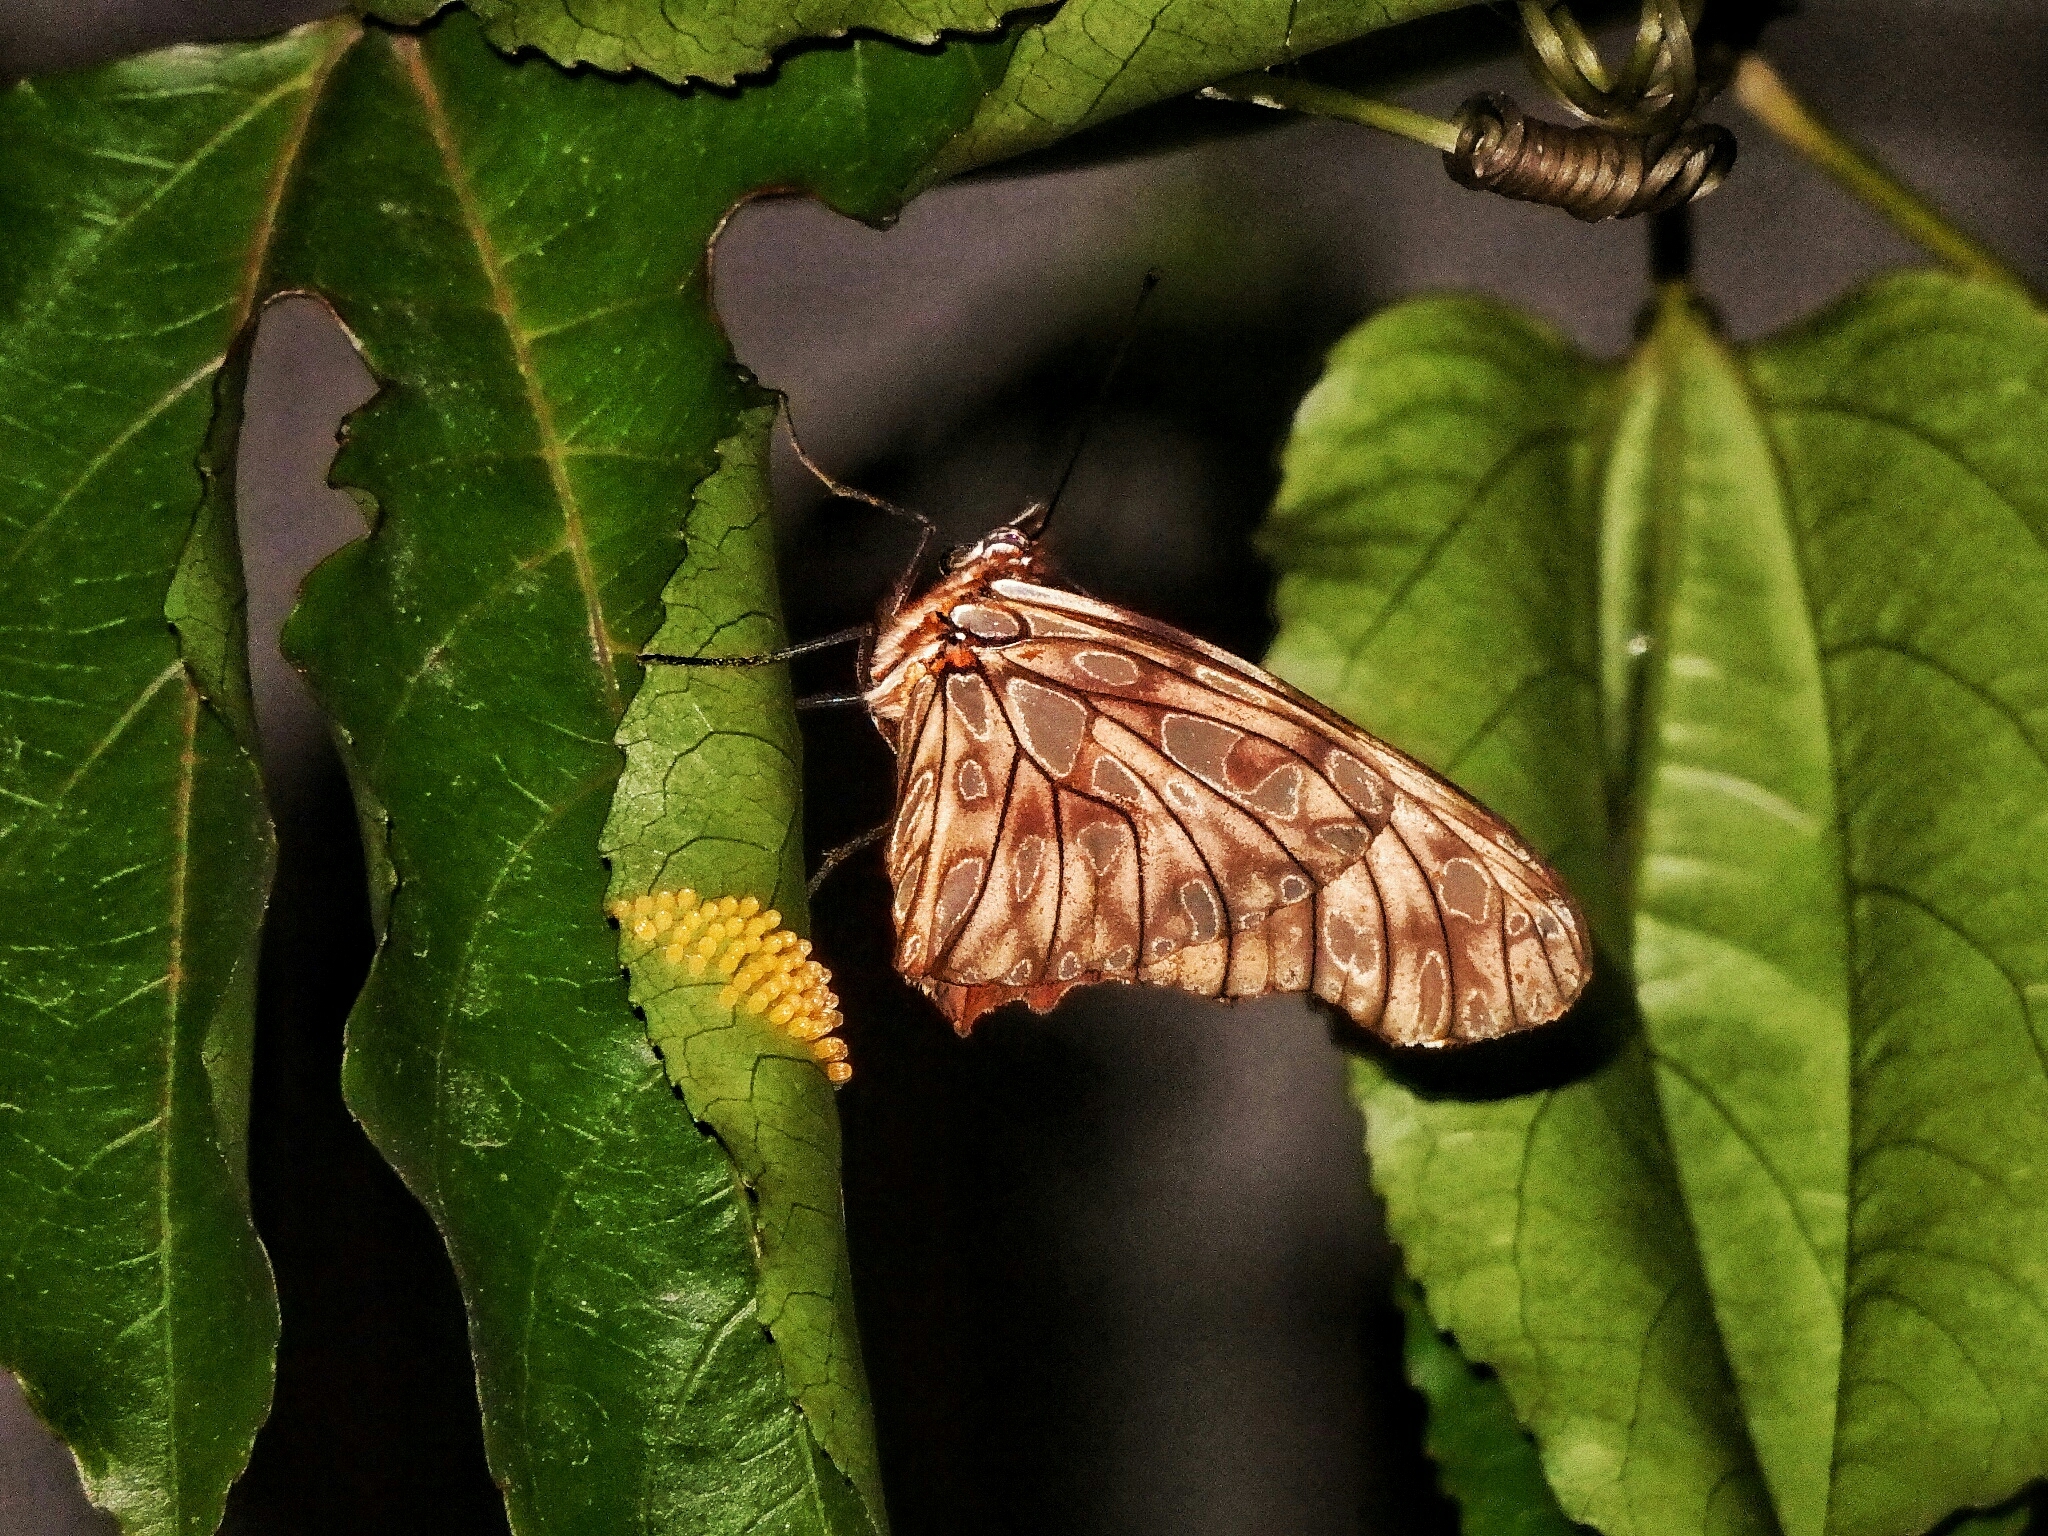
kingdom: Animalia
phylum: Arthropoda
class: Insecta
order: Lepidoptera
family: Nymphalidae
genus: Dione
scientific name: Dione juno
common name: Juno silverspot
